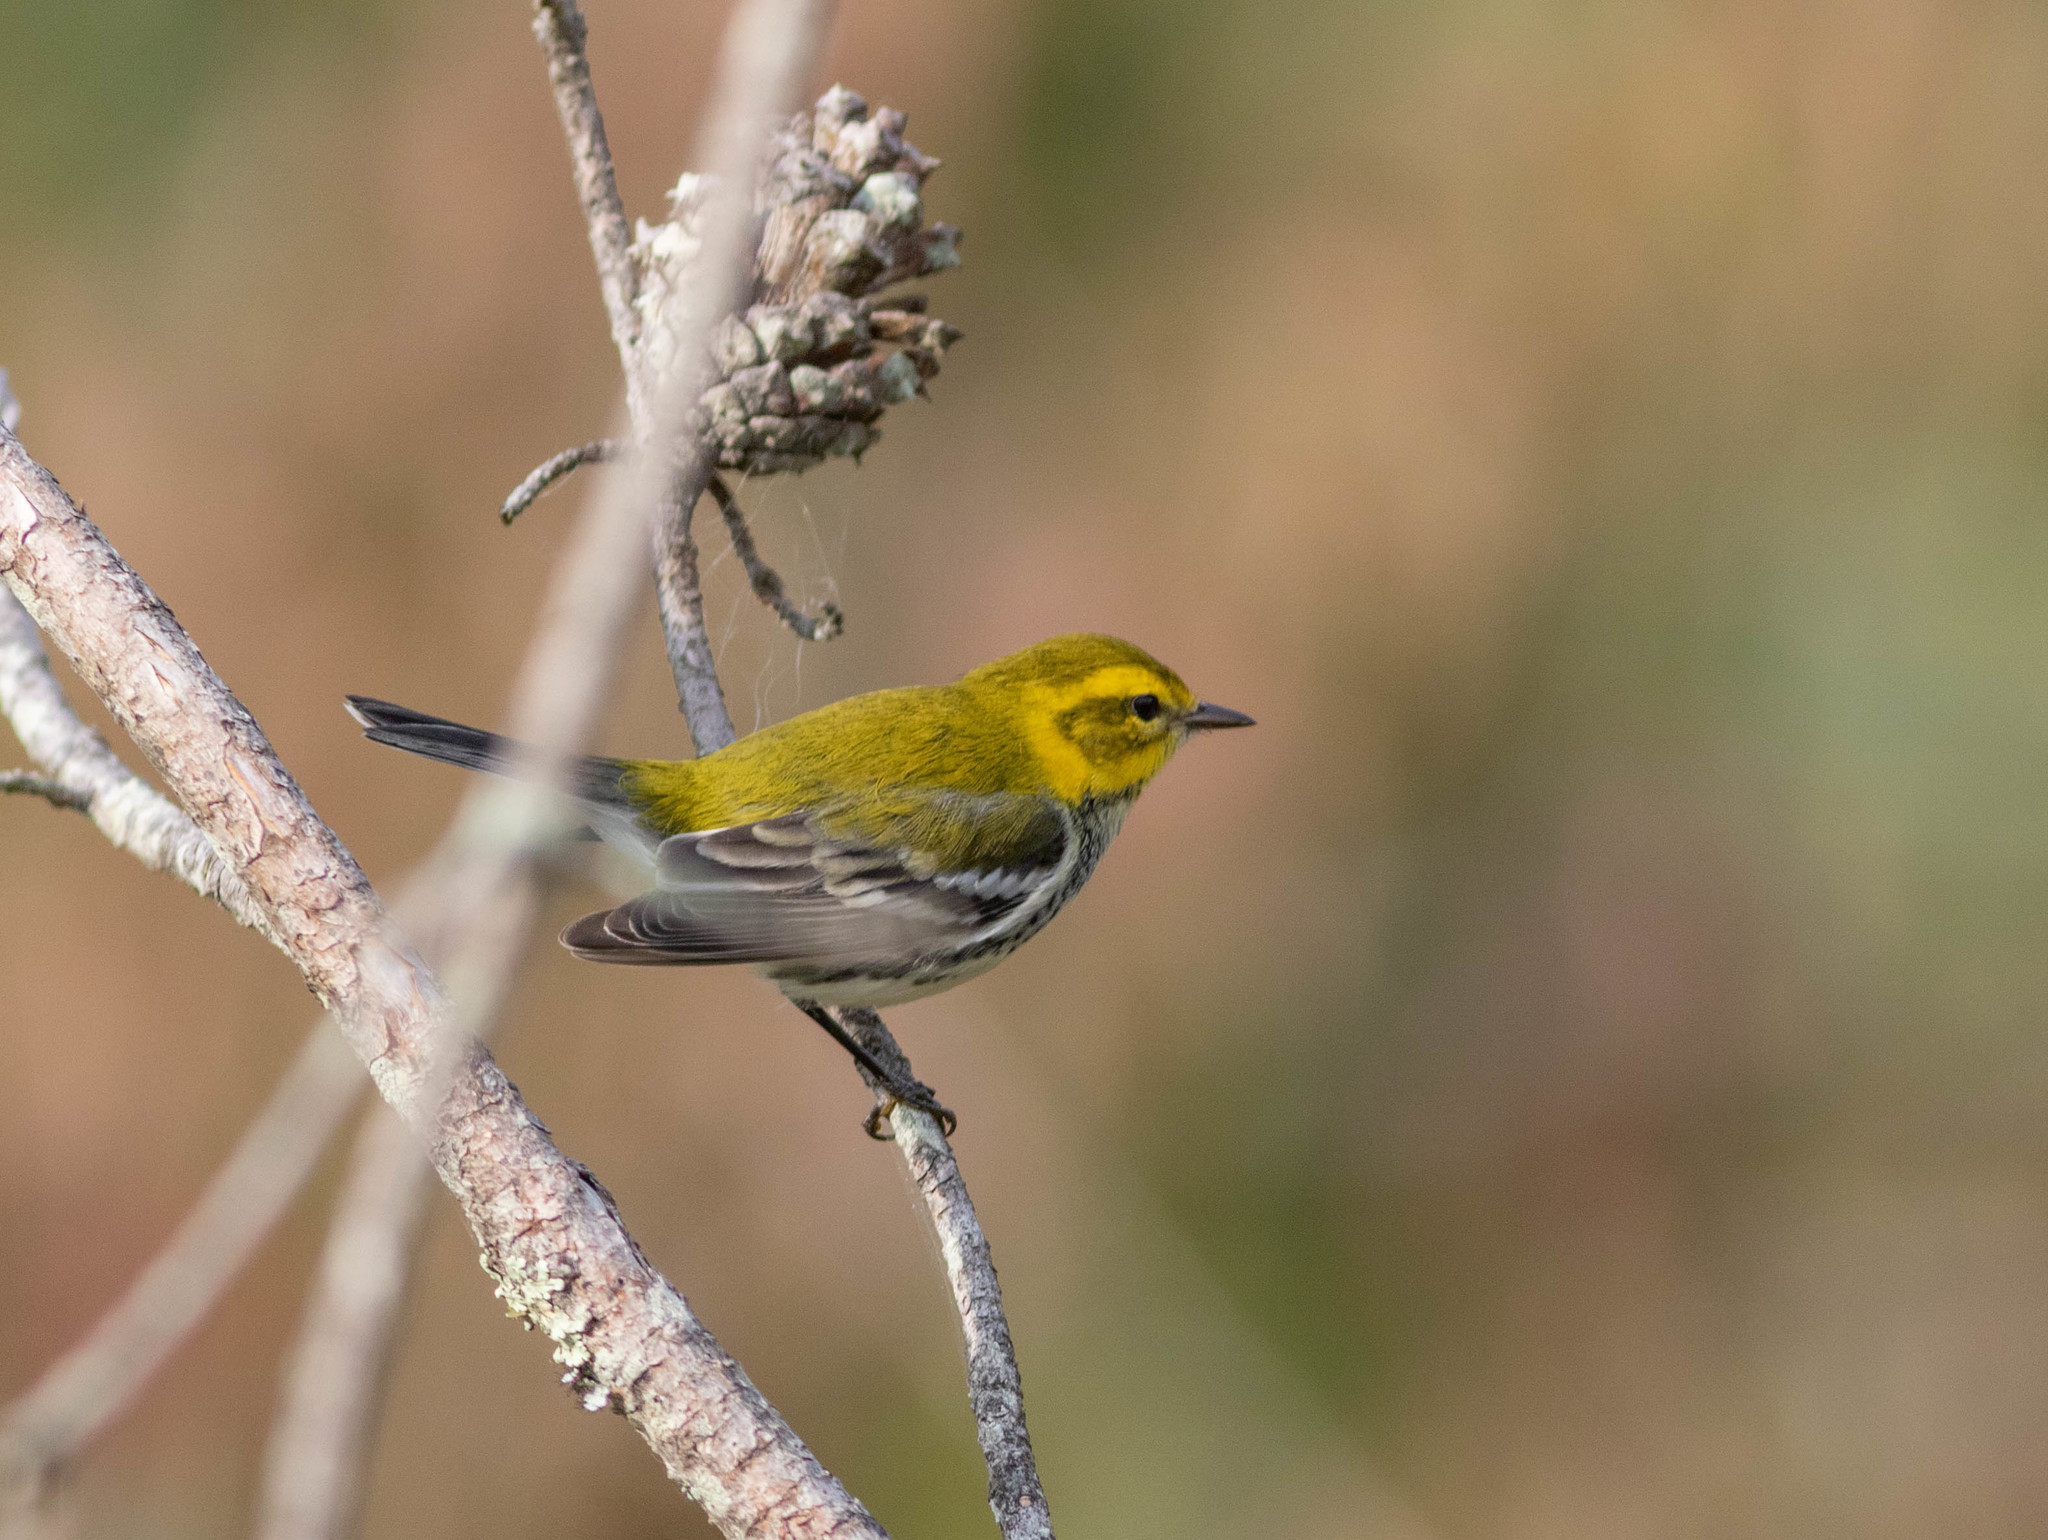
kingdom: Animalia
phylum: Chordata
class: Aves
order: Passeriformes
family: Parulidae
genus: Setophaga
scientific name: Setophaga virens
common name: Black-throated green warbler
